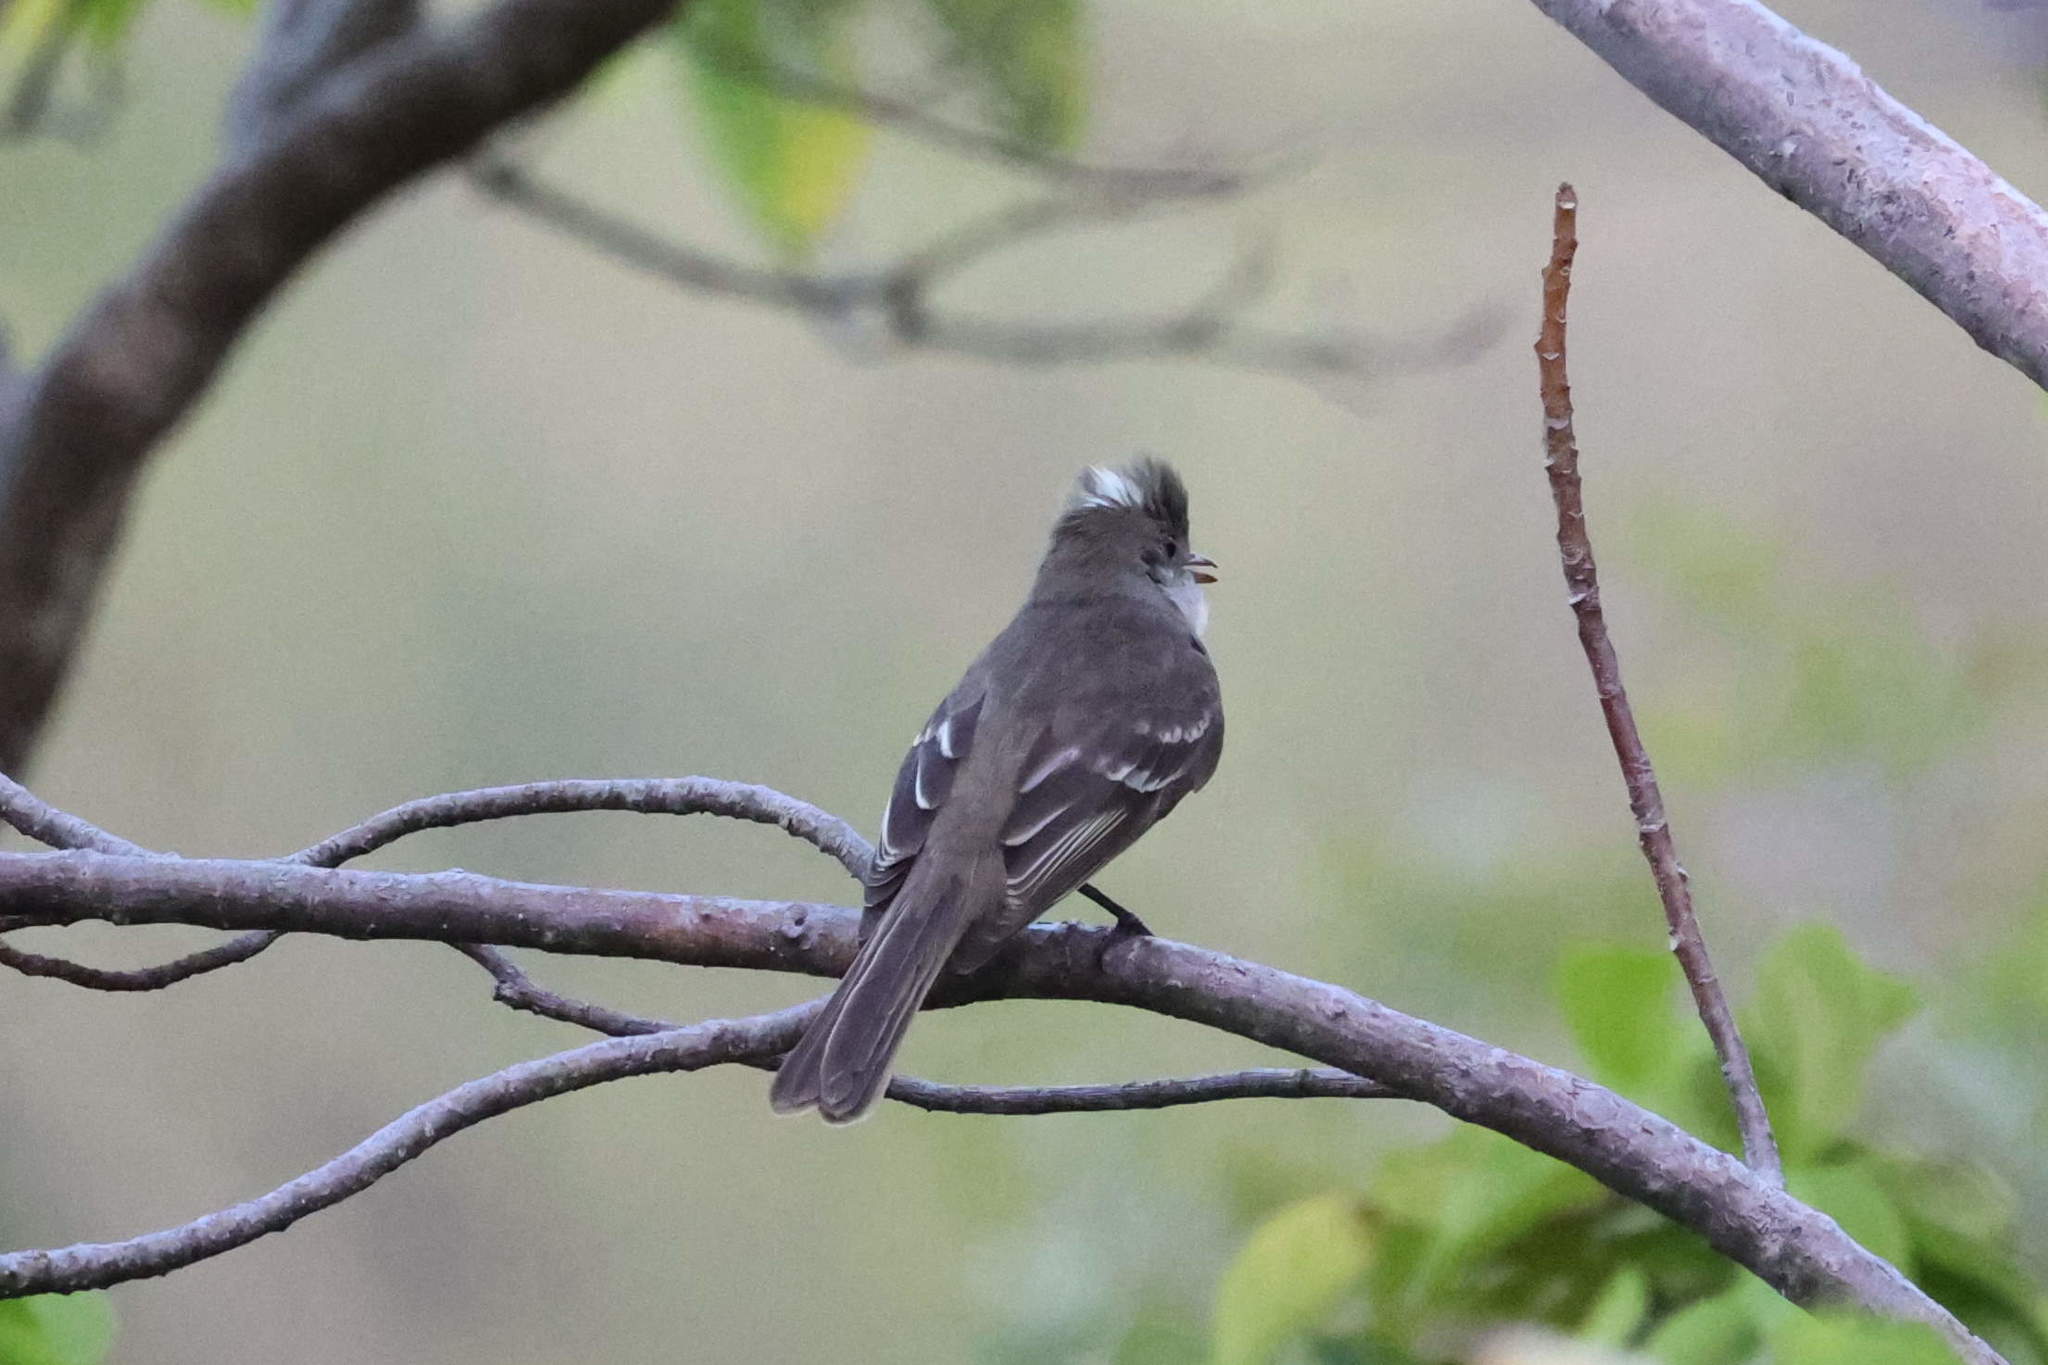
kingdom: Animalia
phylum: Chordata
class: Aves
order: Passeriformes
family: Tyrannidae
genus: Elaenia
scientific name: Elaenia martinica
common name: Caribbean elaenia
